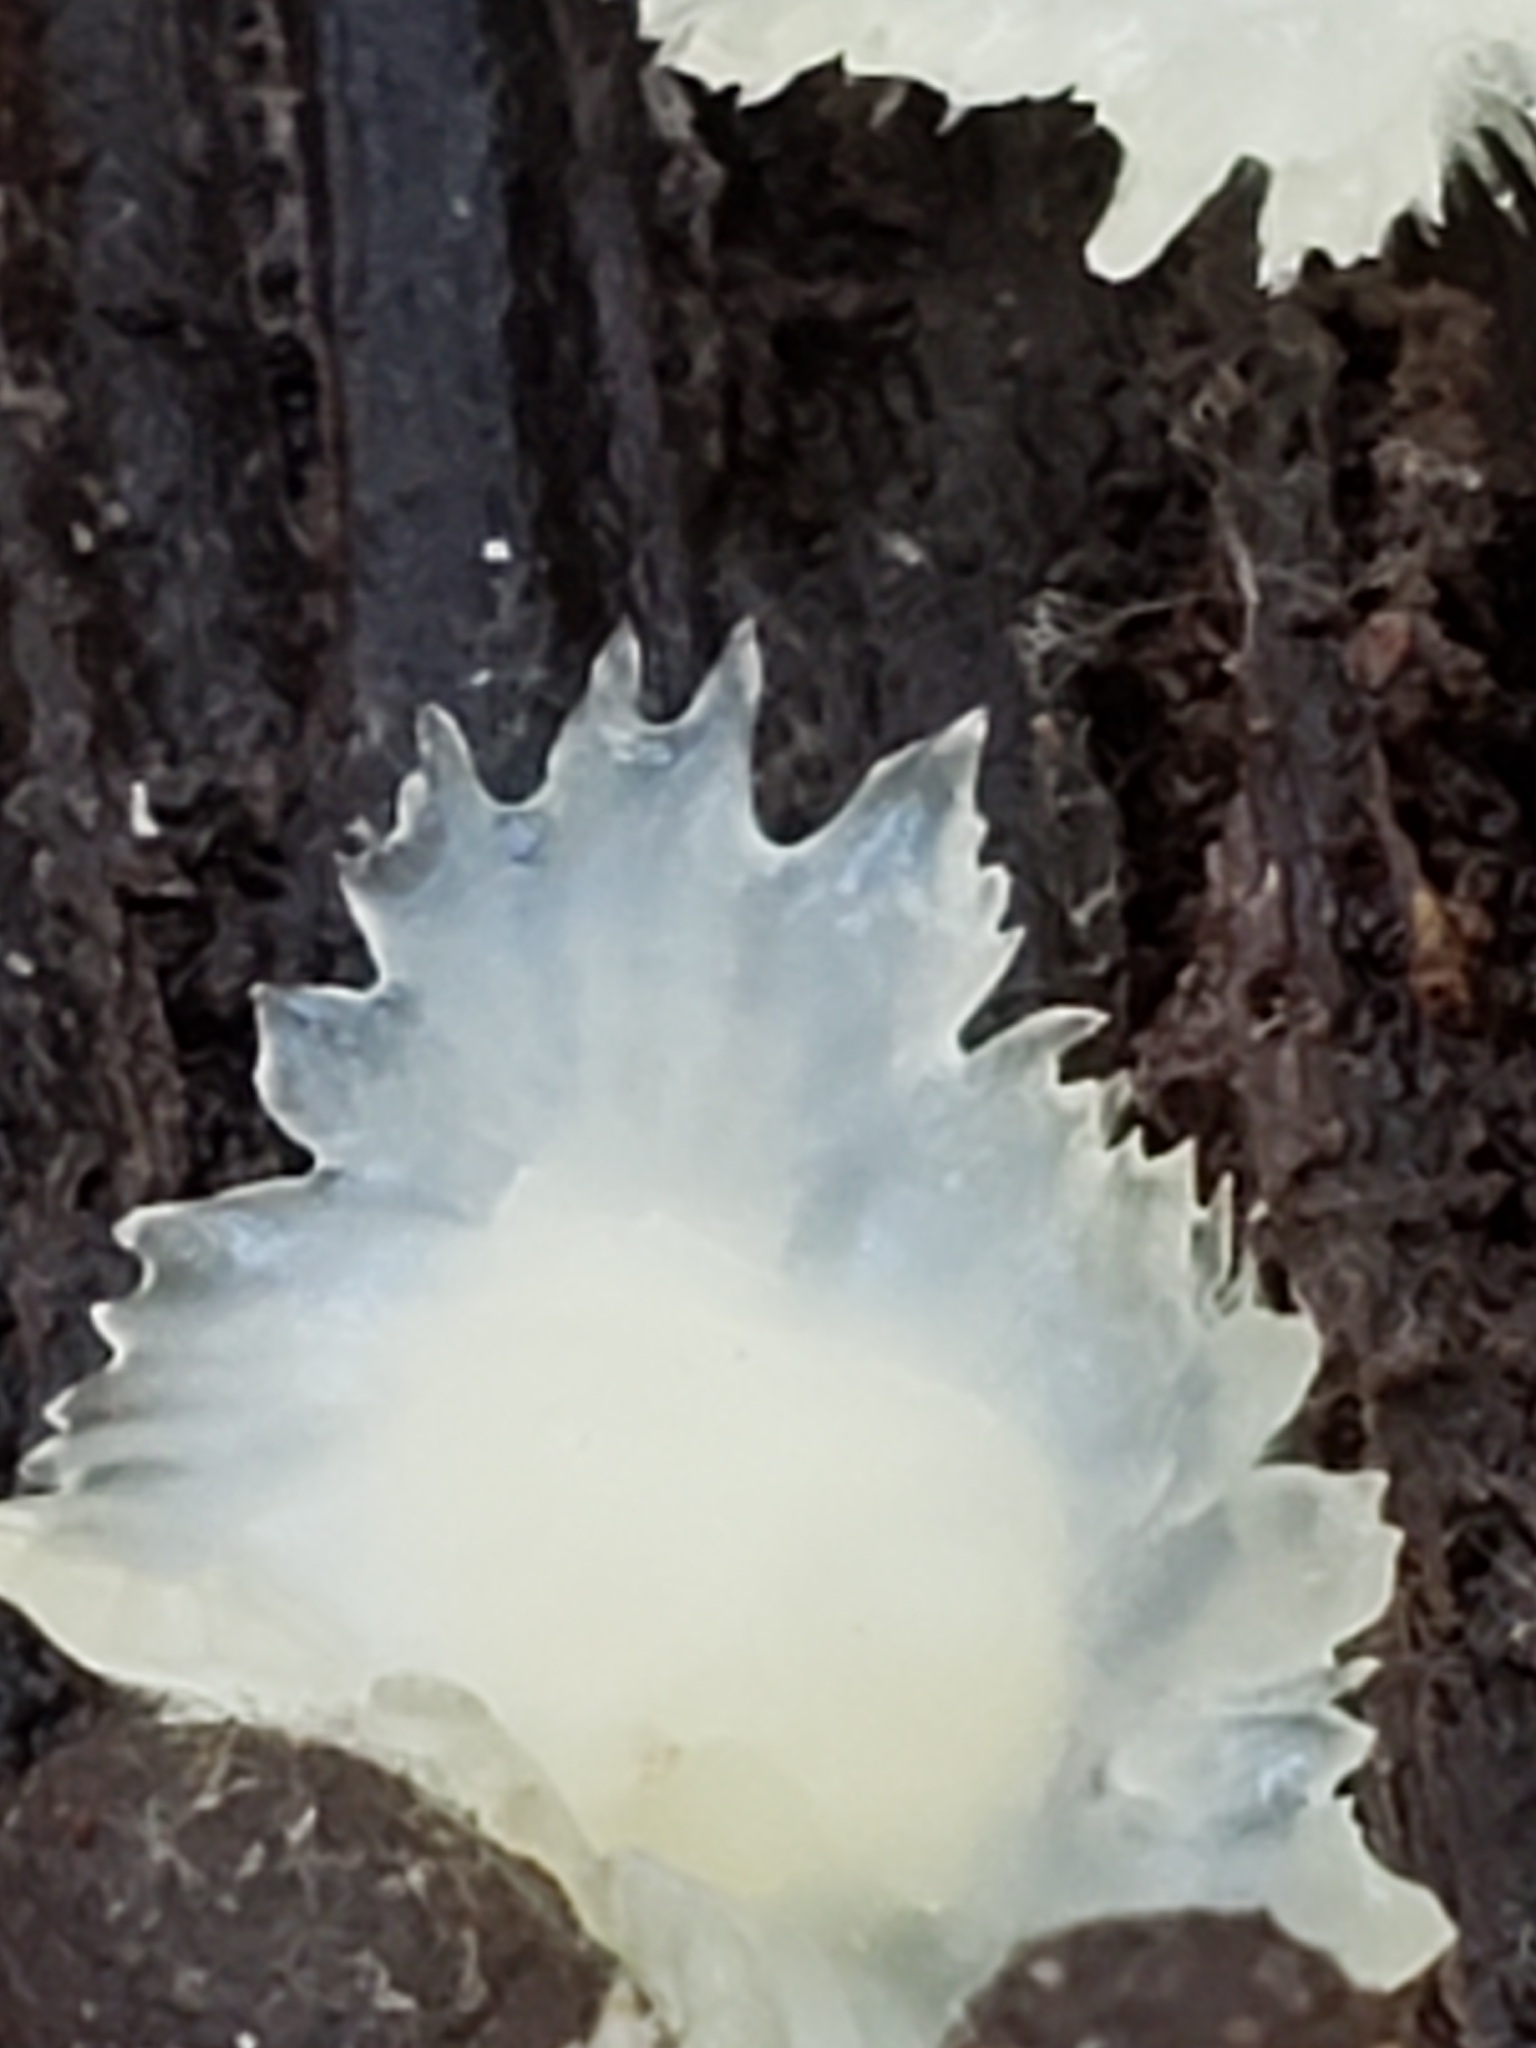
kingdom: Fungi
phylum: Basidiomycota
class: Agaricomycetes
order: Polyporales
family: Meruliaceae
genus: Phlebia
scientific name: Phlebia tremellosa
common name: Jelly rot
